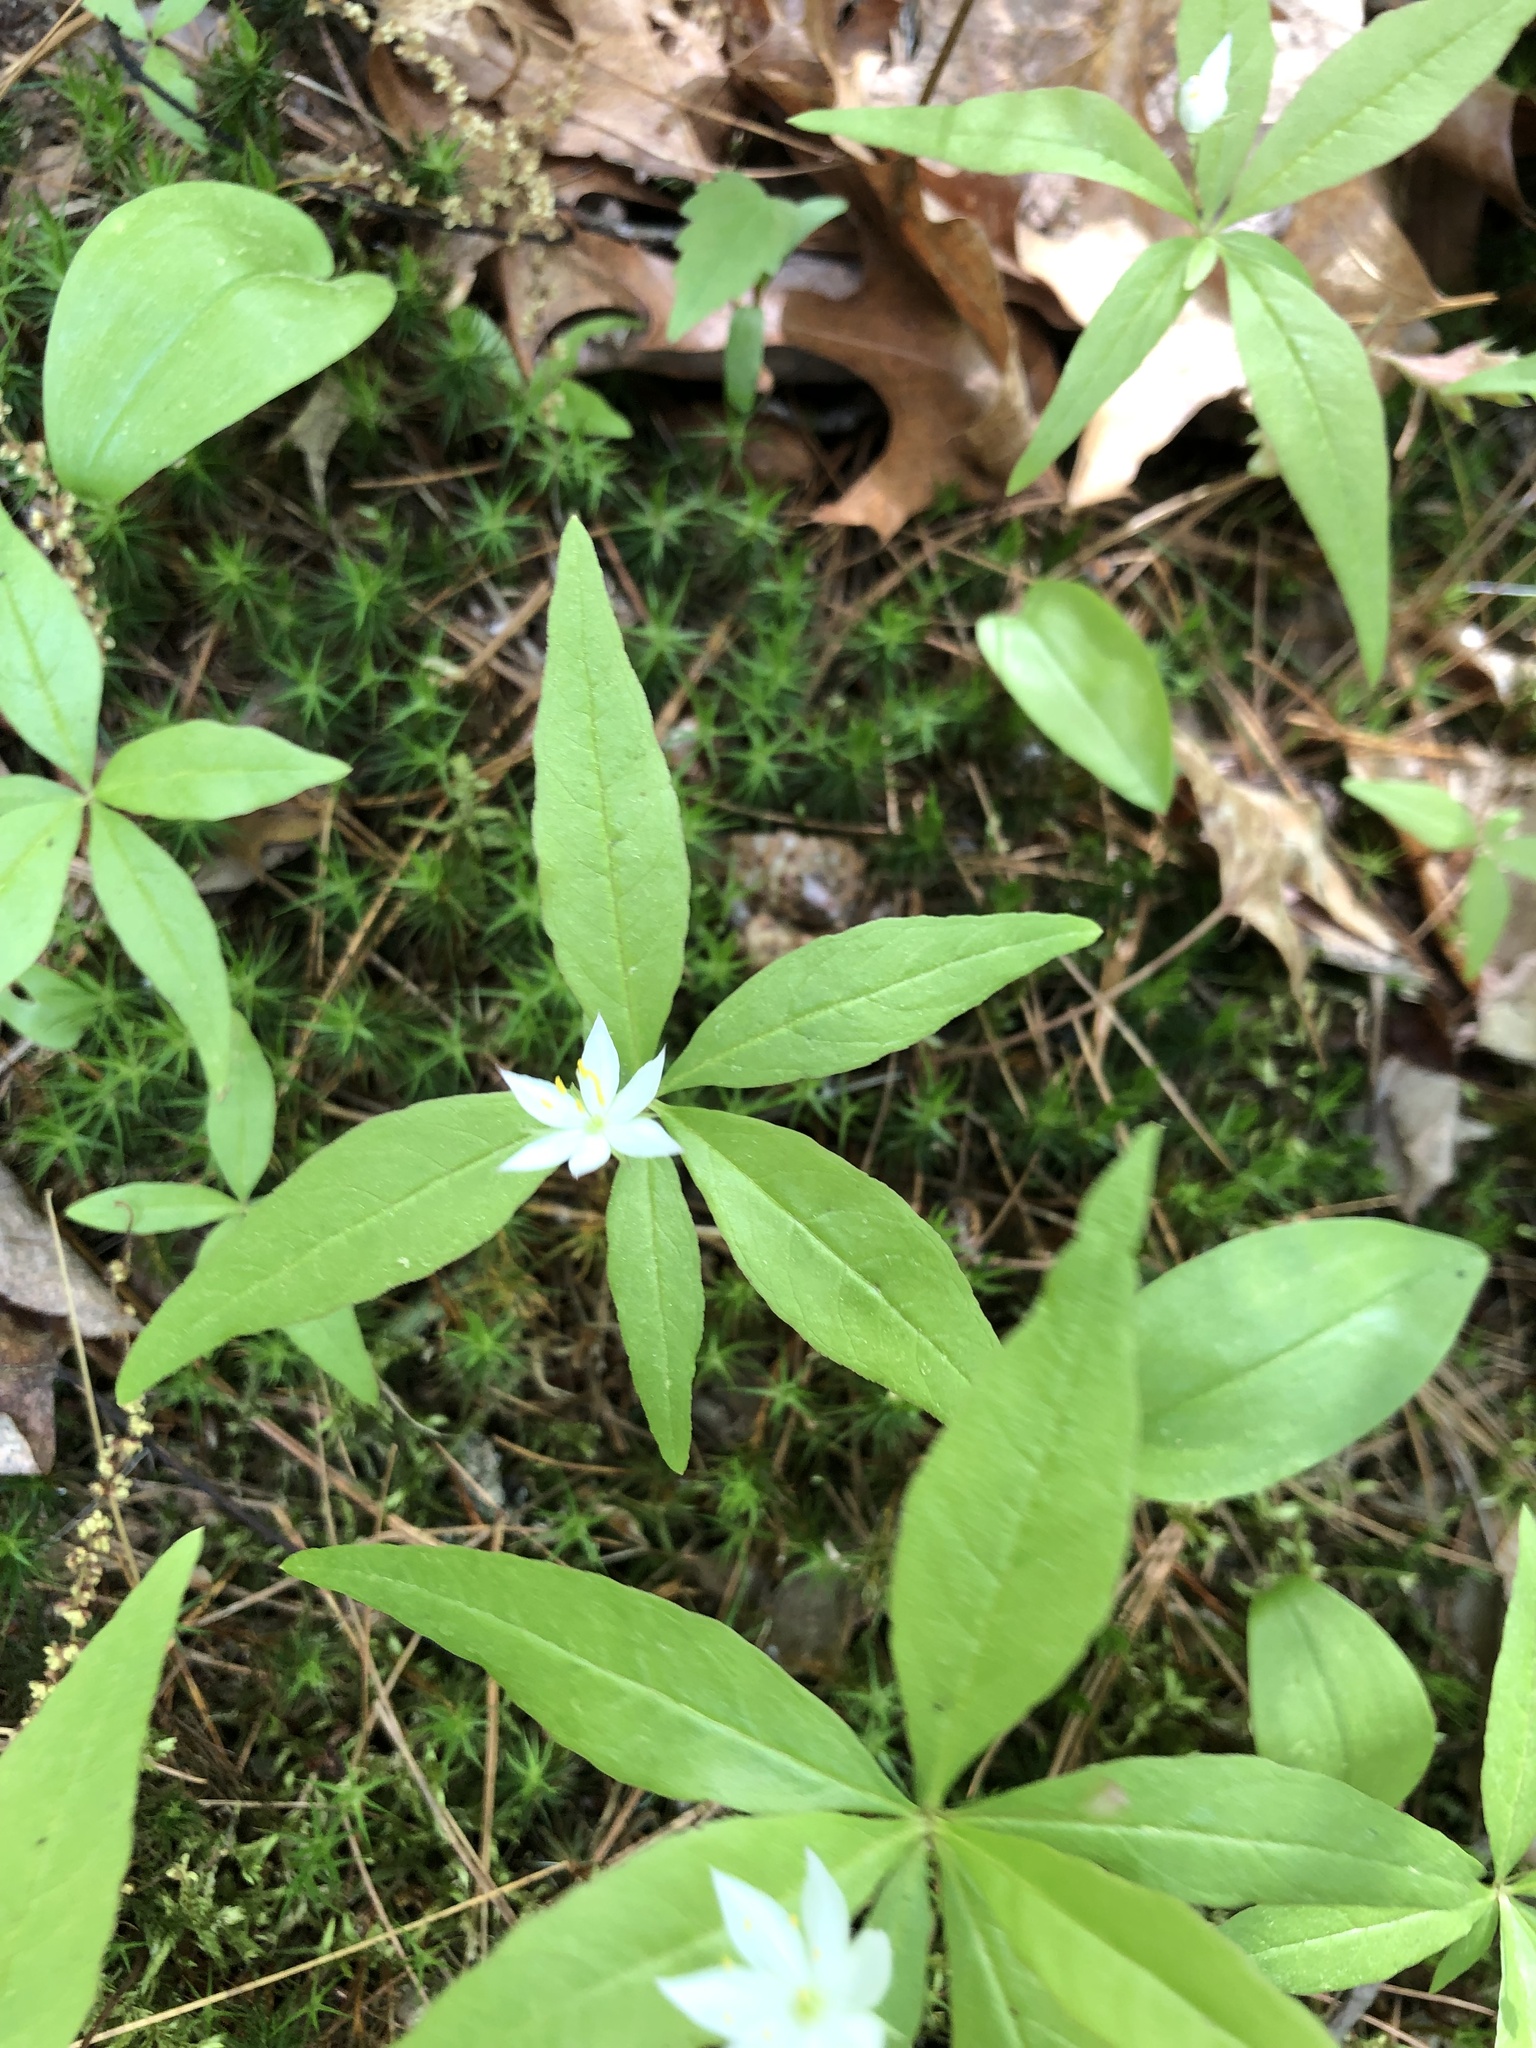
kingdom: Plantae
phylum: Tracheophyta
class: Magnoliopsida
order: Ericales
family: Primulaceae
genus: Lysimachia
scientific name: Lysimachia borealis
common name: American starflower
